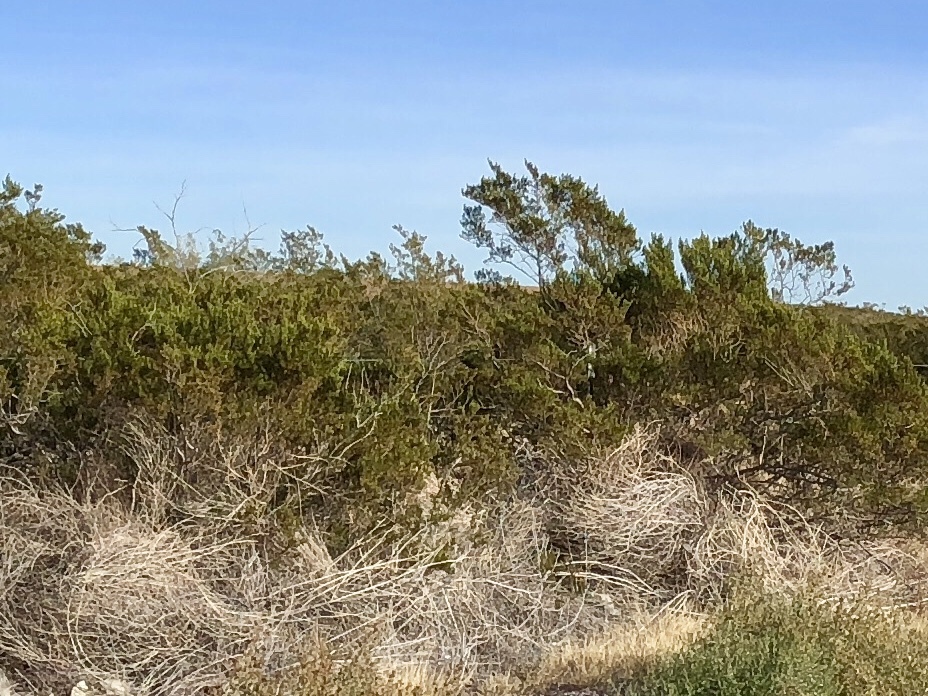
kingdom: Plantae
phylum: Tracheophyta
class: Magnoliopsida
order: Zygophyllales
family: Zygophyllaceae
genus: Larrea
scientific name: Larrea tridentata
